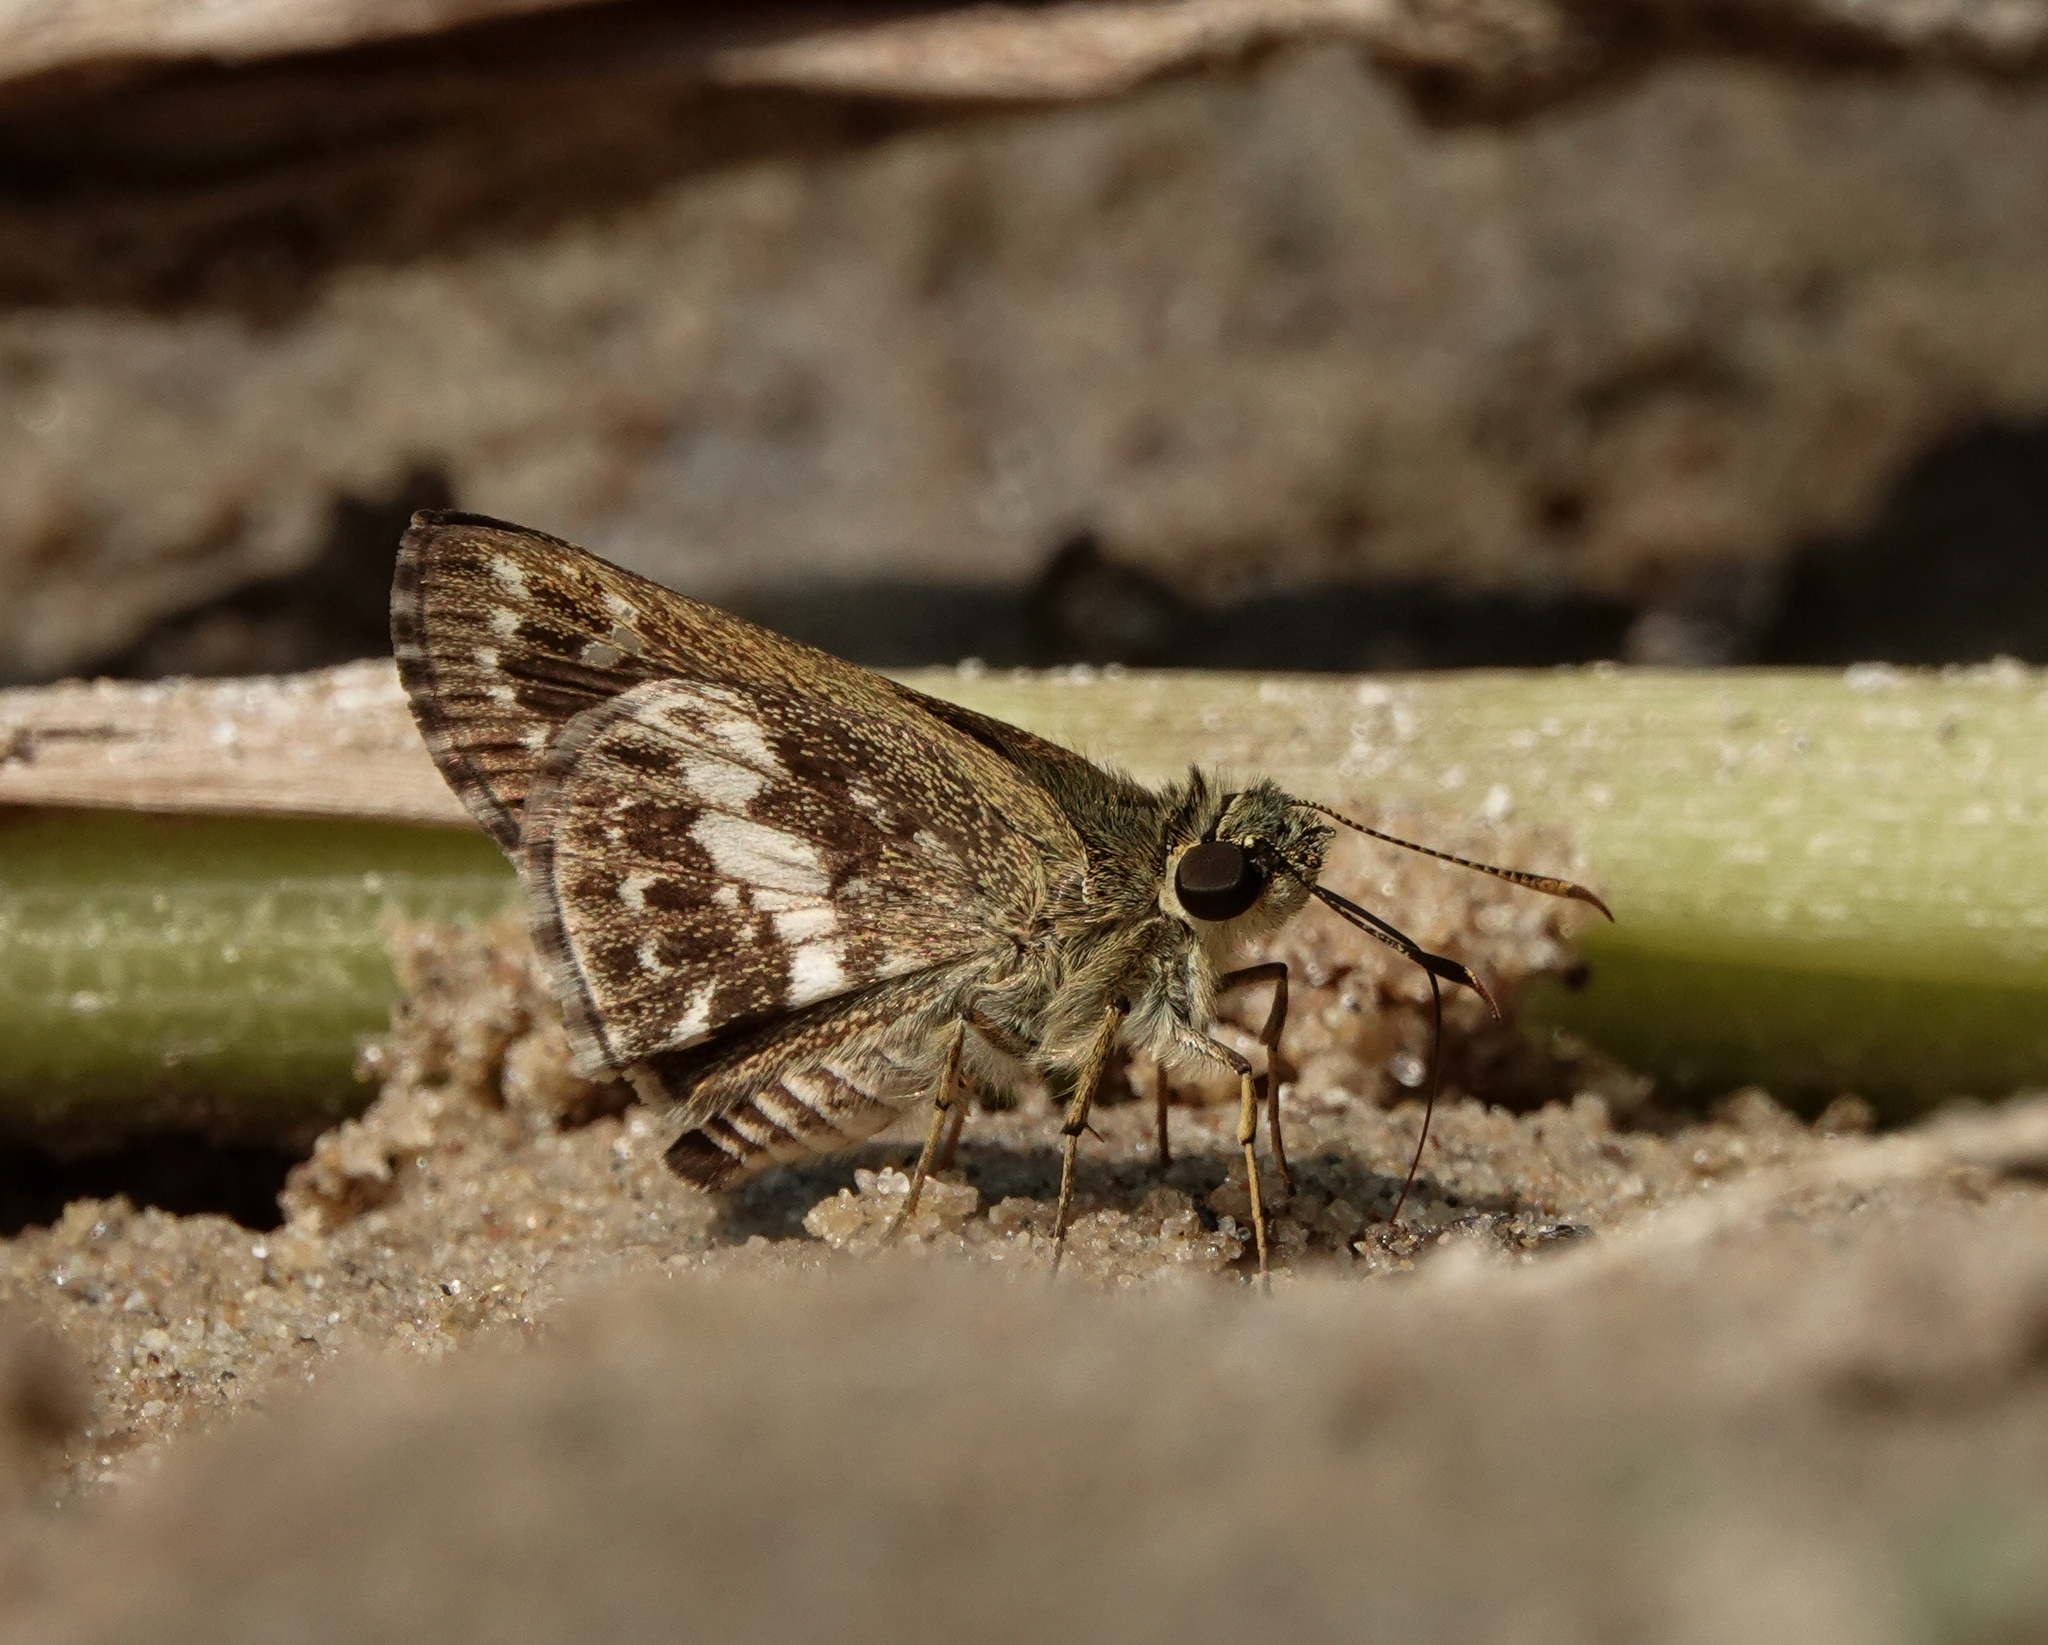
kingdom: Animalia
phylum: Arthropoda
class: Insecta
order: Lepidoptera
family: Hesperiidae
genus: Halpe
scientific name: Halpe porus
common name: Moore's ace
